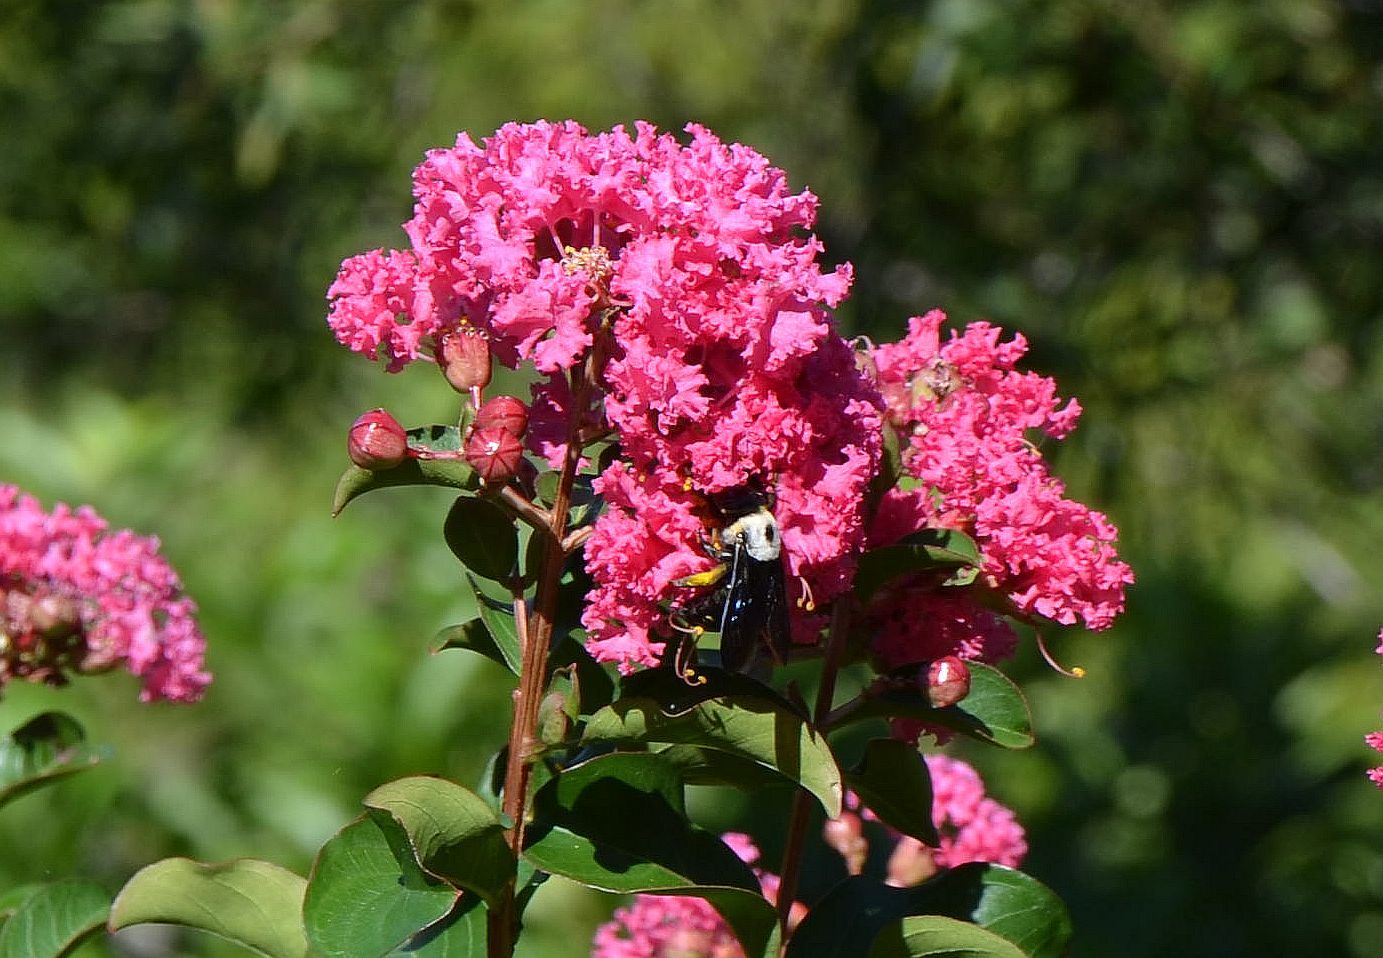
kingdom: Animalia
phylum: Arthropoda
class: Insecta
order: Hymenoptera
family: Apidae
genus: Xylocopa
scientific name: Xylocopa phalothorax
